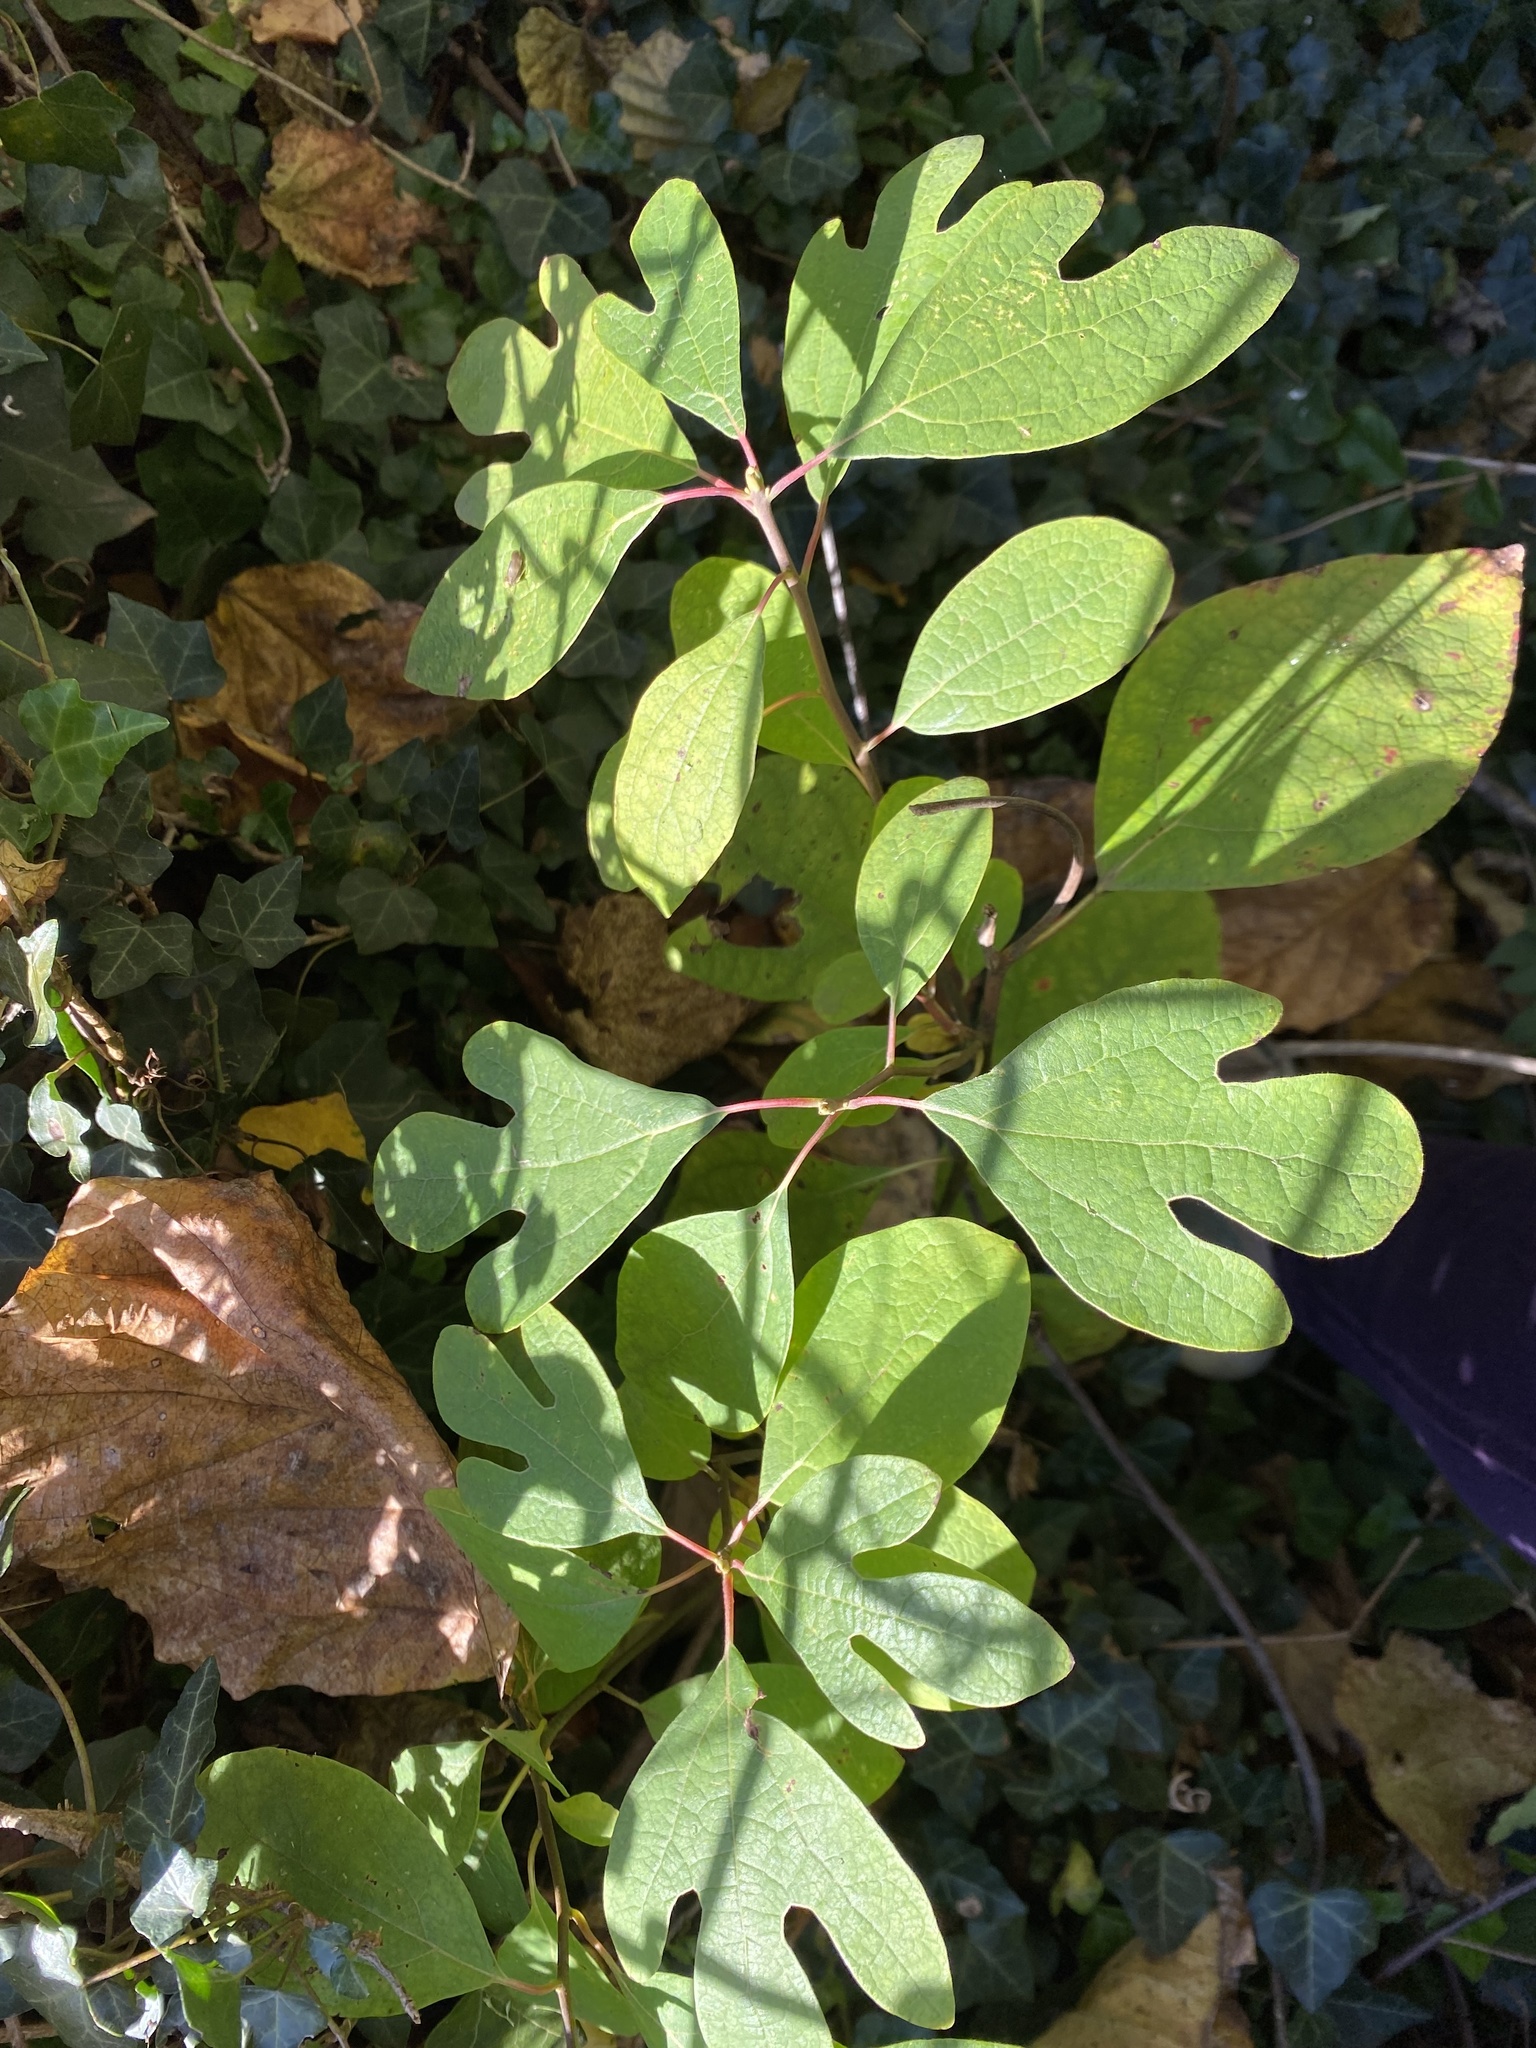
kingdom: Plantae
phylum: Tracheophyta
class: Magnoliopsida
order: Laurales
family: Lauraceae
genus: Sassafras
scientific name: Sassafras albidum
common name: Sassafras
